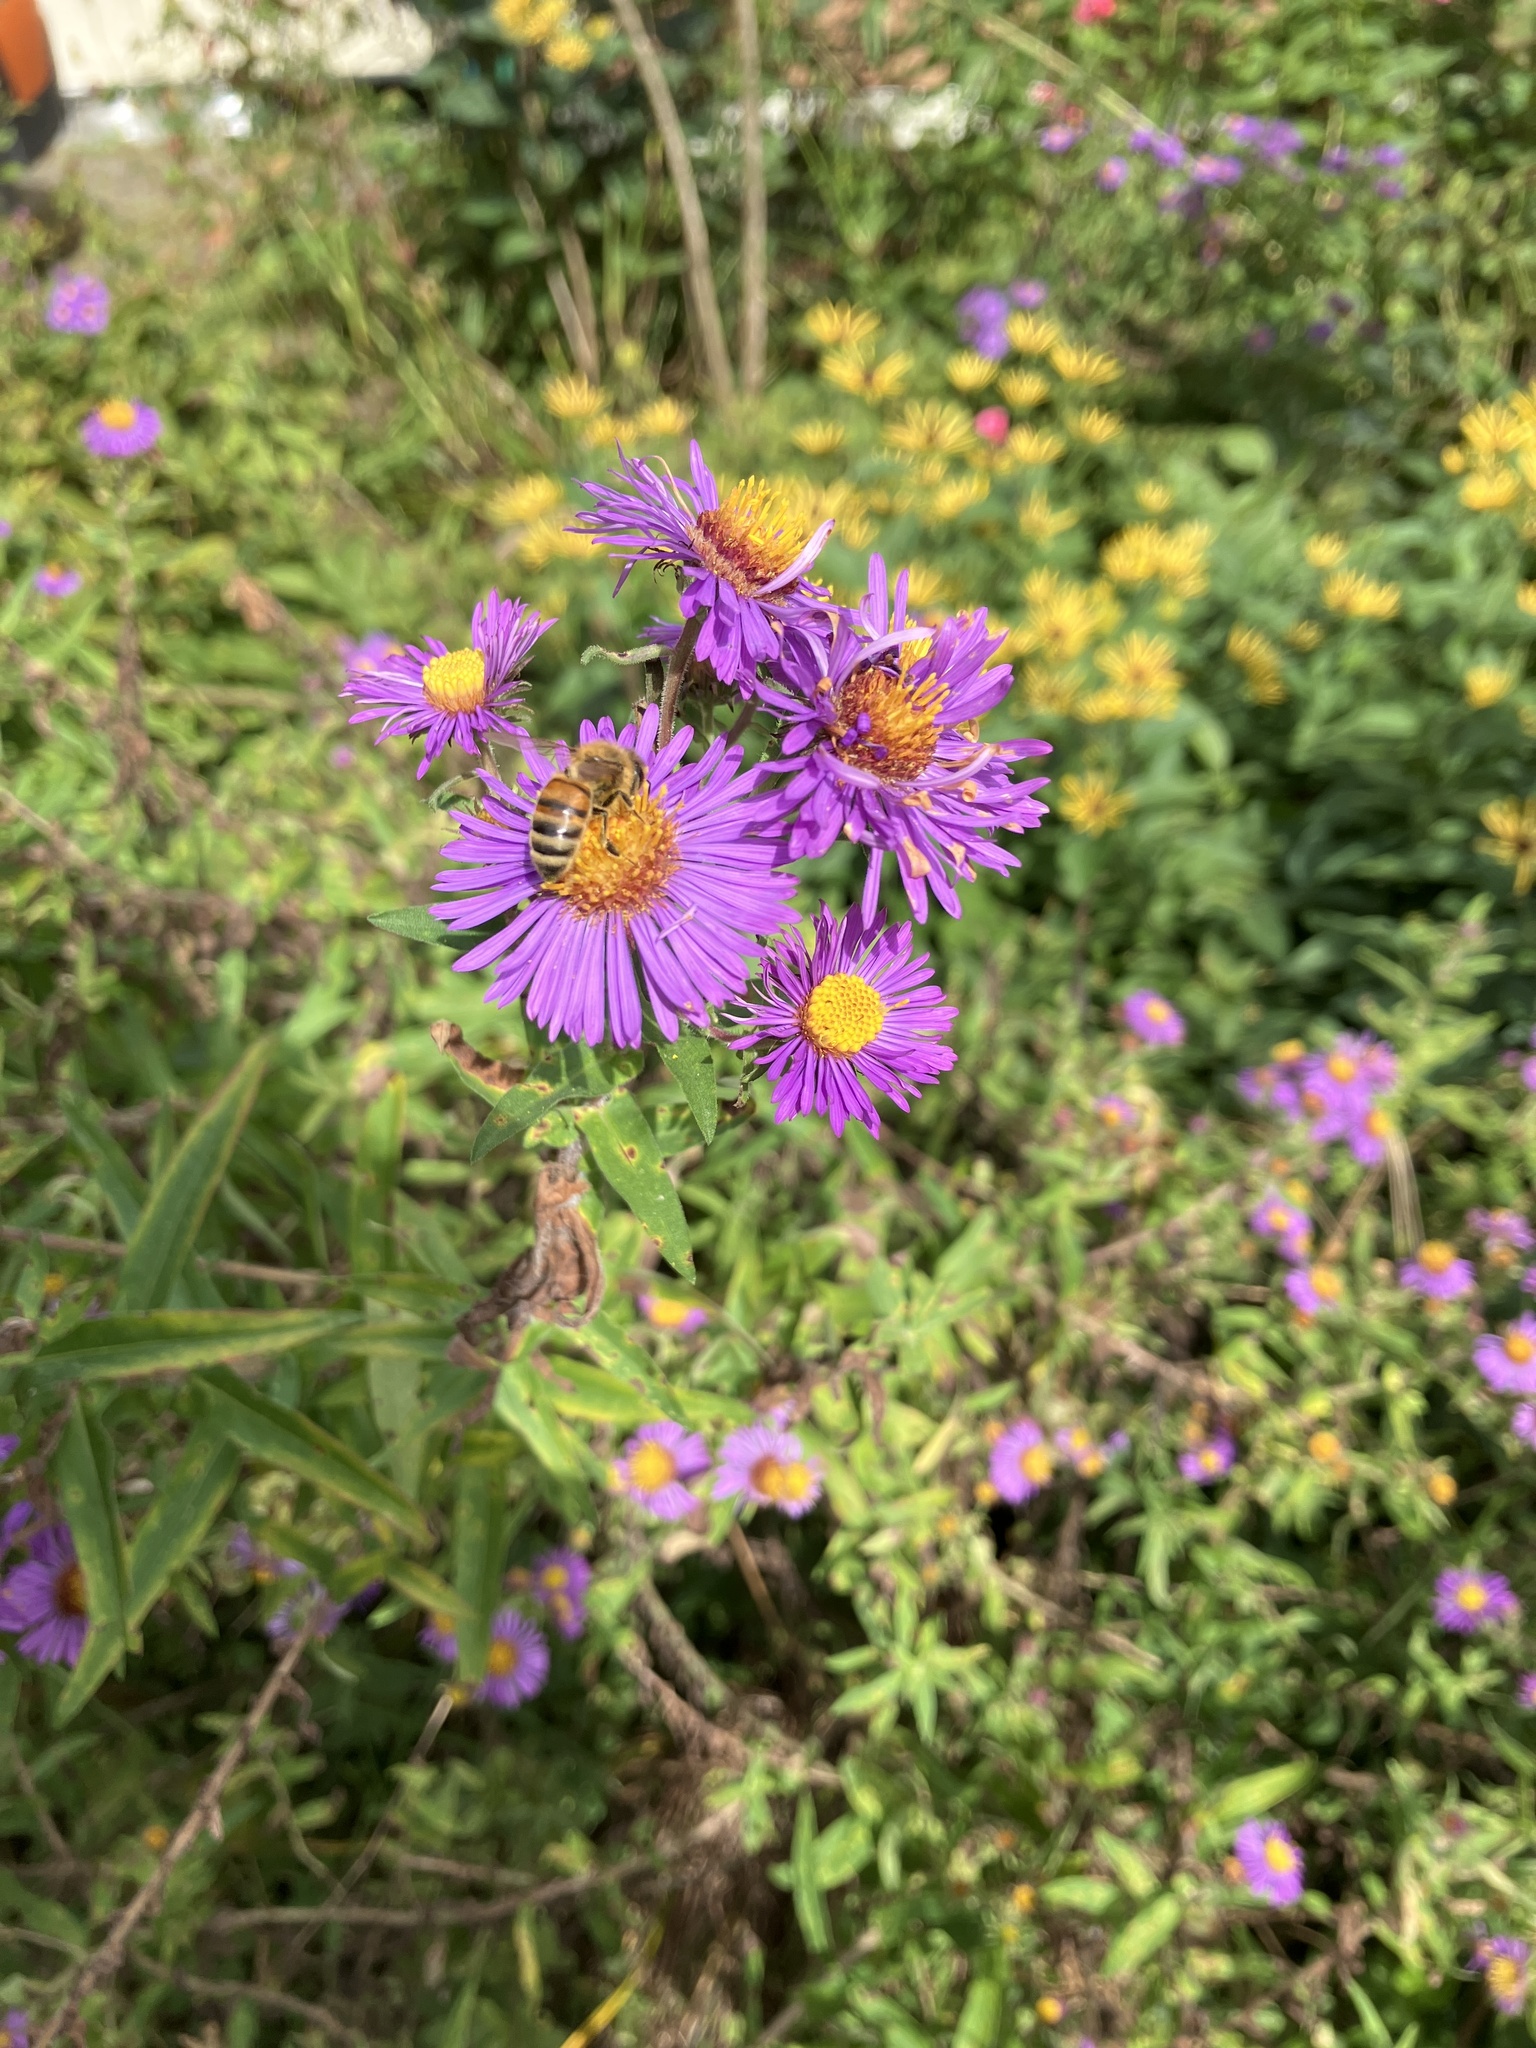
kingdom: Animalia
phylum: Arthropoda
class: Insecta
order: Hymenoptera
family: Apidae
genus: Apis
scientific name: Apis mellifera
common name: Honey bee
